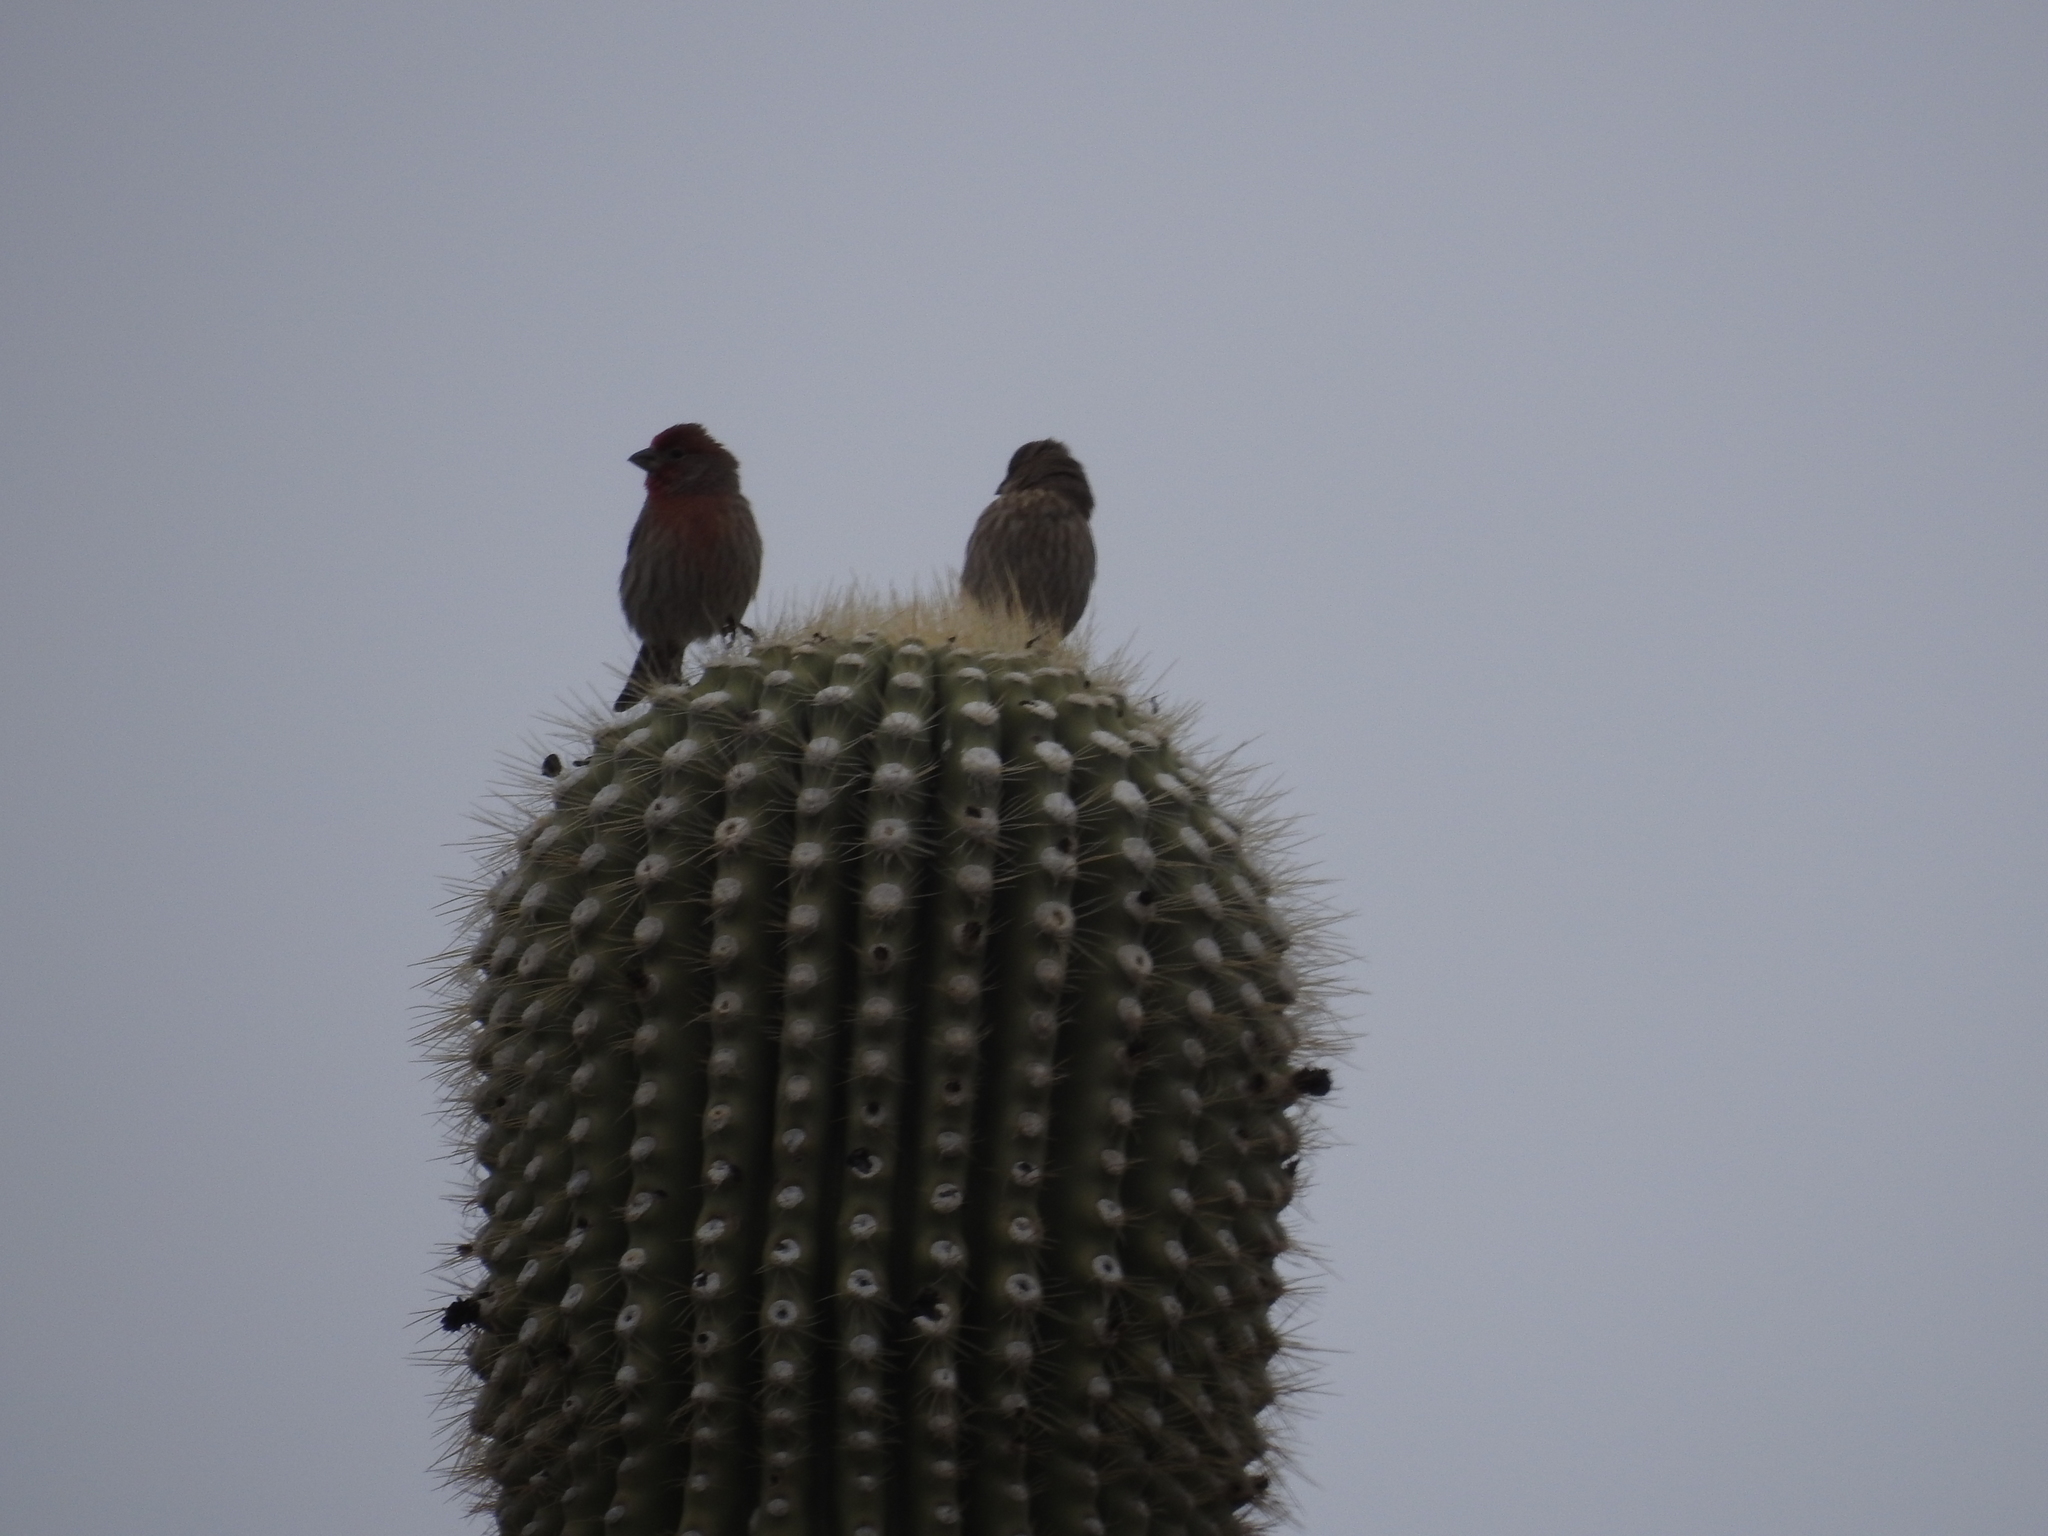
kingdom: Animalia
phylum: Chordata
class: Aves
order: Passeriformes
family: Fringillidae
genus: Haemorhous
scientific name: Haemorhous mexicanus
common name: House finch
